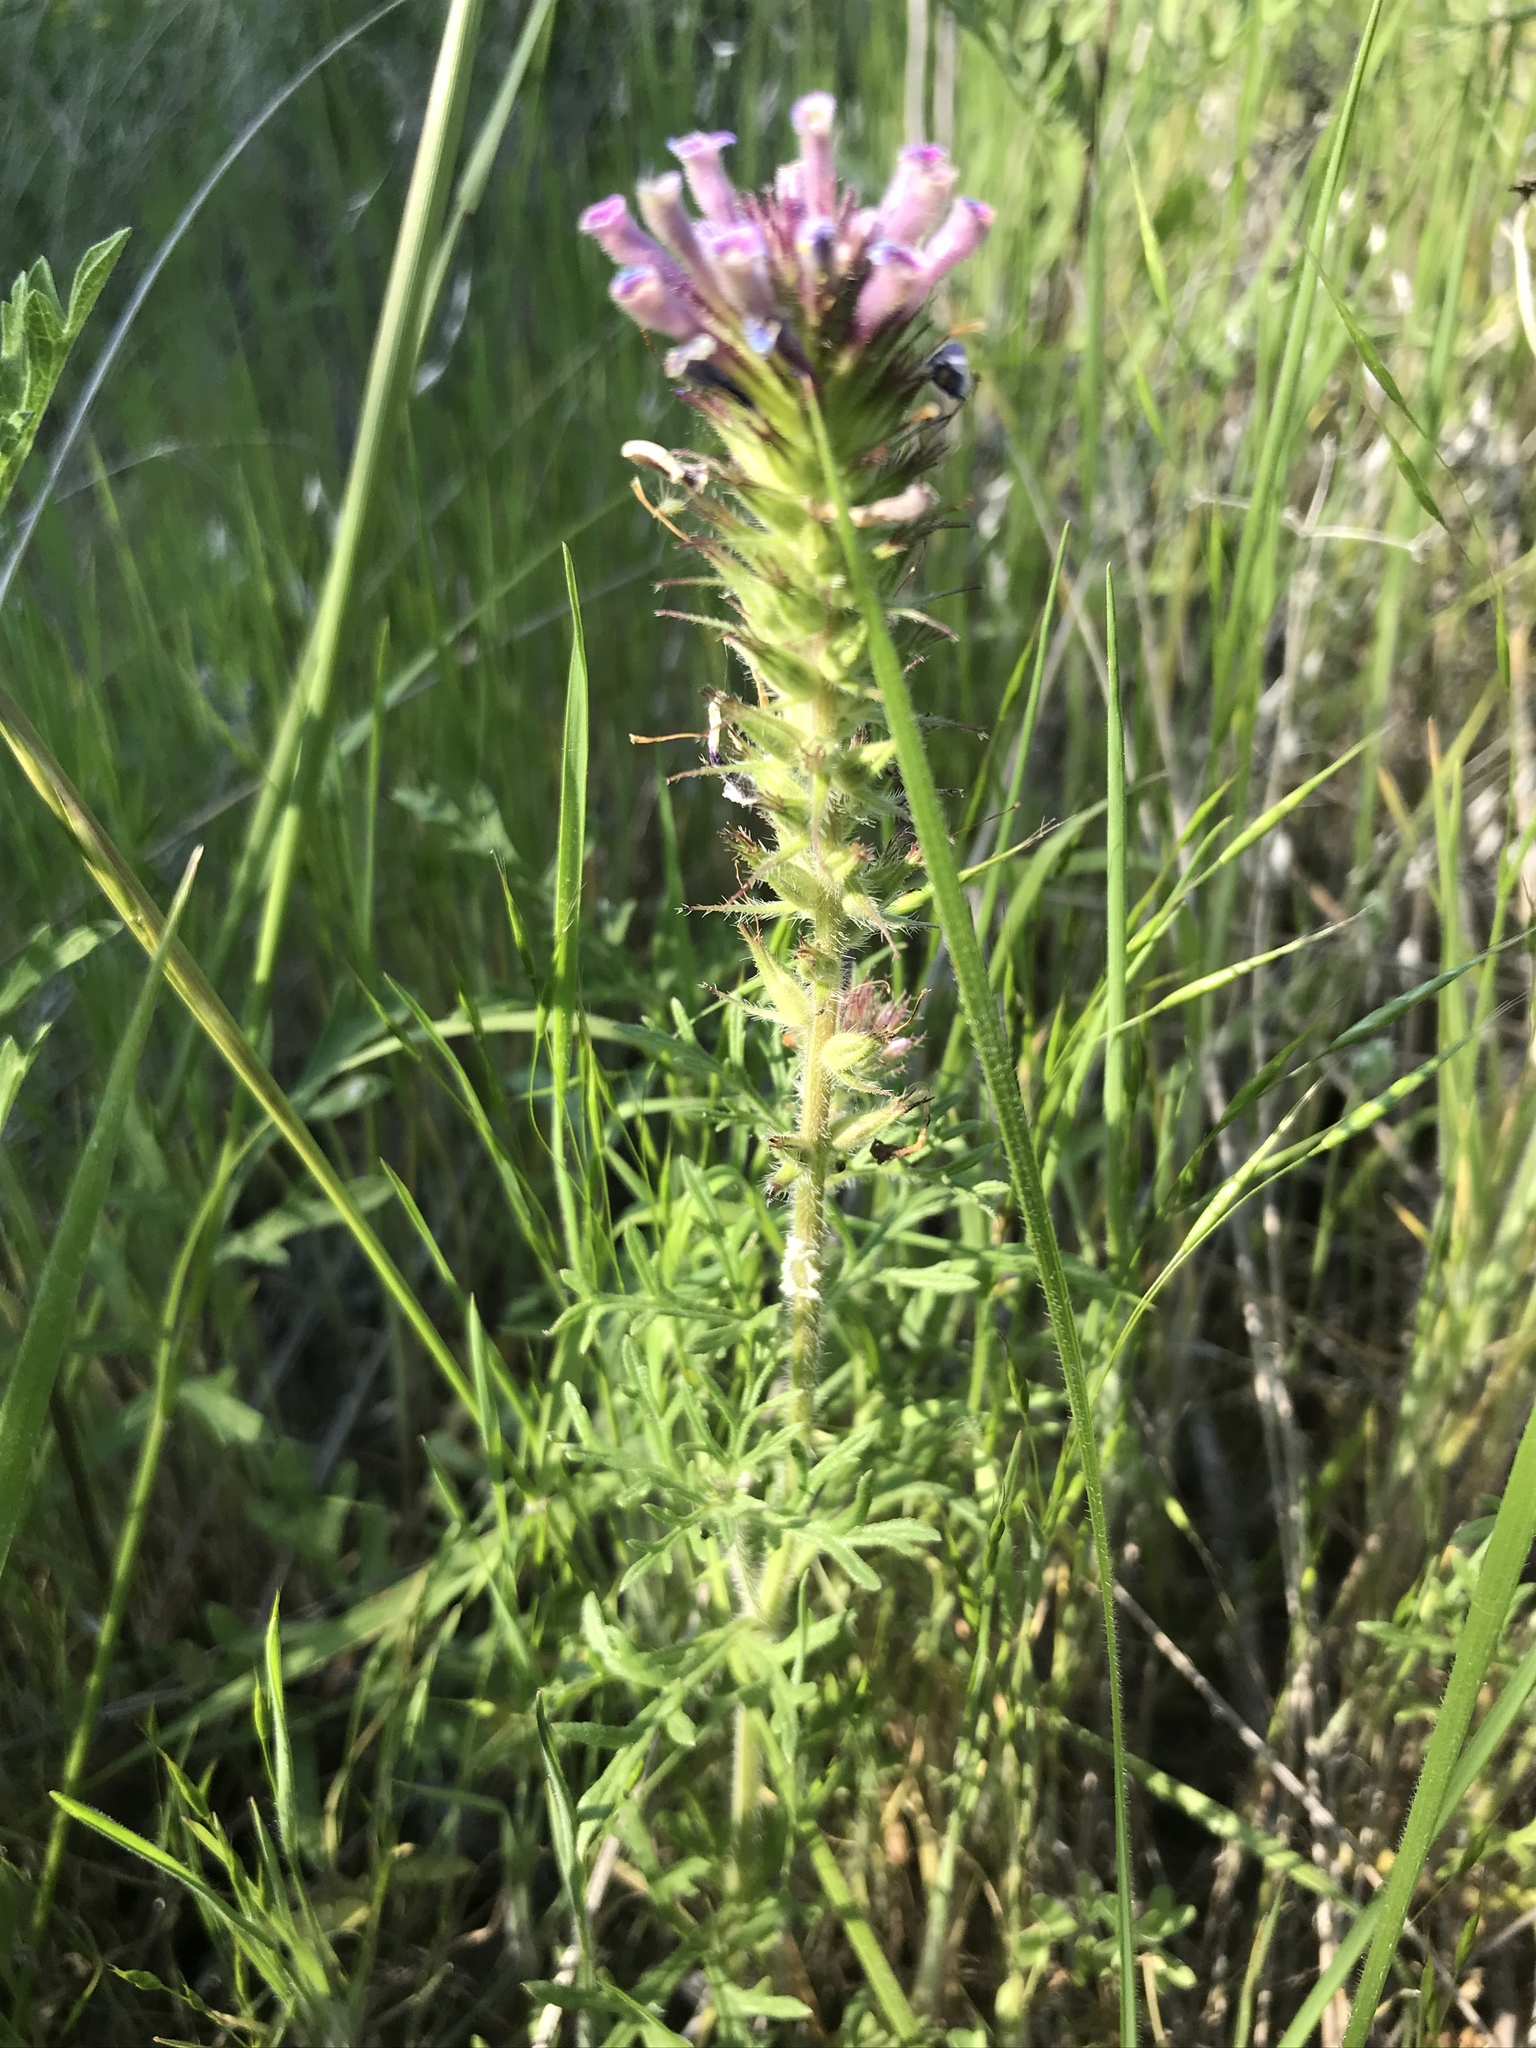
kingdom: Plantae
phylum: Tracheophyta
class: Magnoliopsida
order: Lamiales
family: Verbenaceae
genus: Verbena
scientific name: Verbena bipinnatifida
